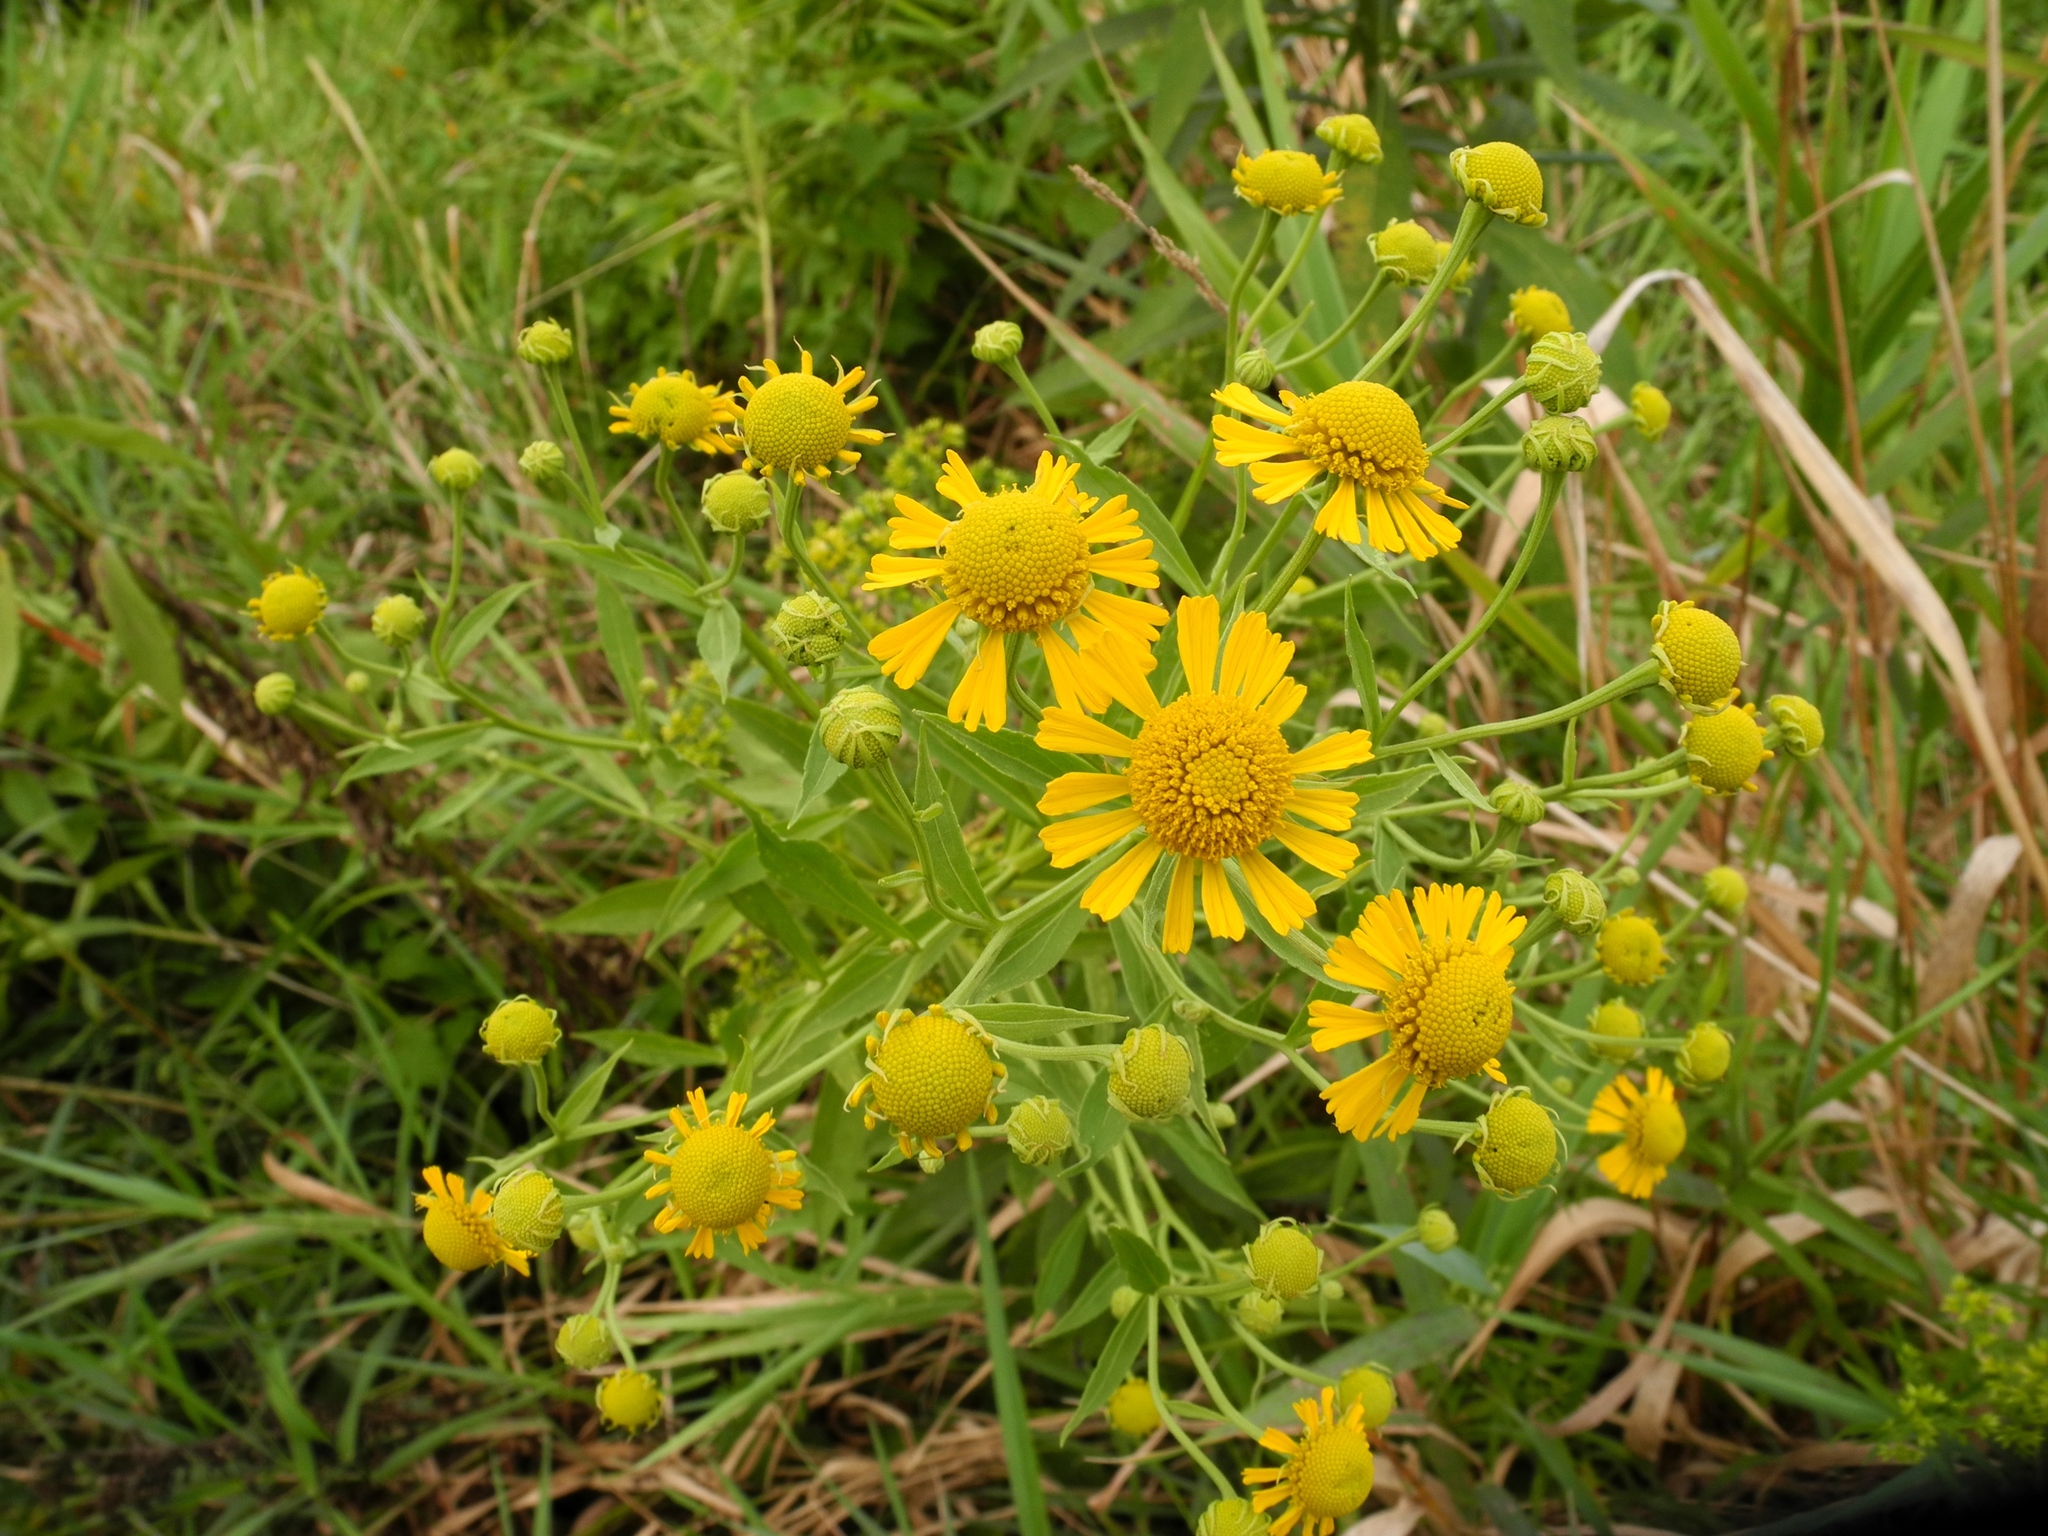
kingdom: Plantae
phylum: Tracheophyta
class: Magnoliopsida
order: Asterales
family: Asteraceae
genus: Helenium
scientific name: Helenium autumnale
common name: Sneezeweed
